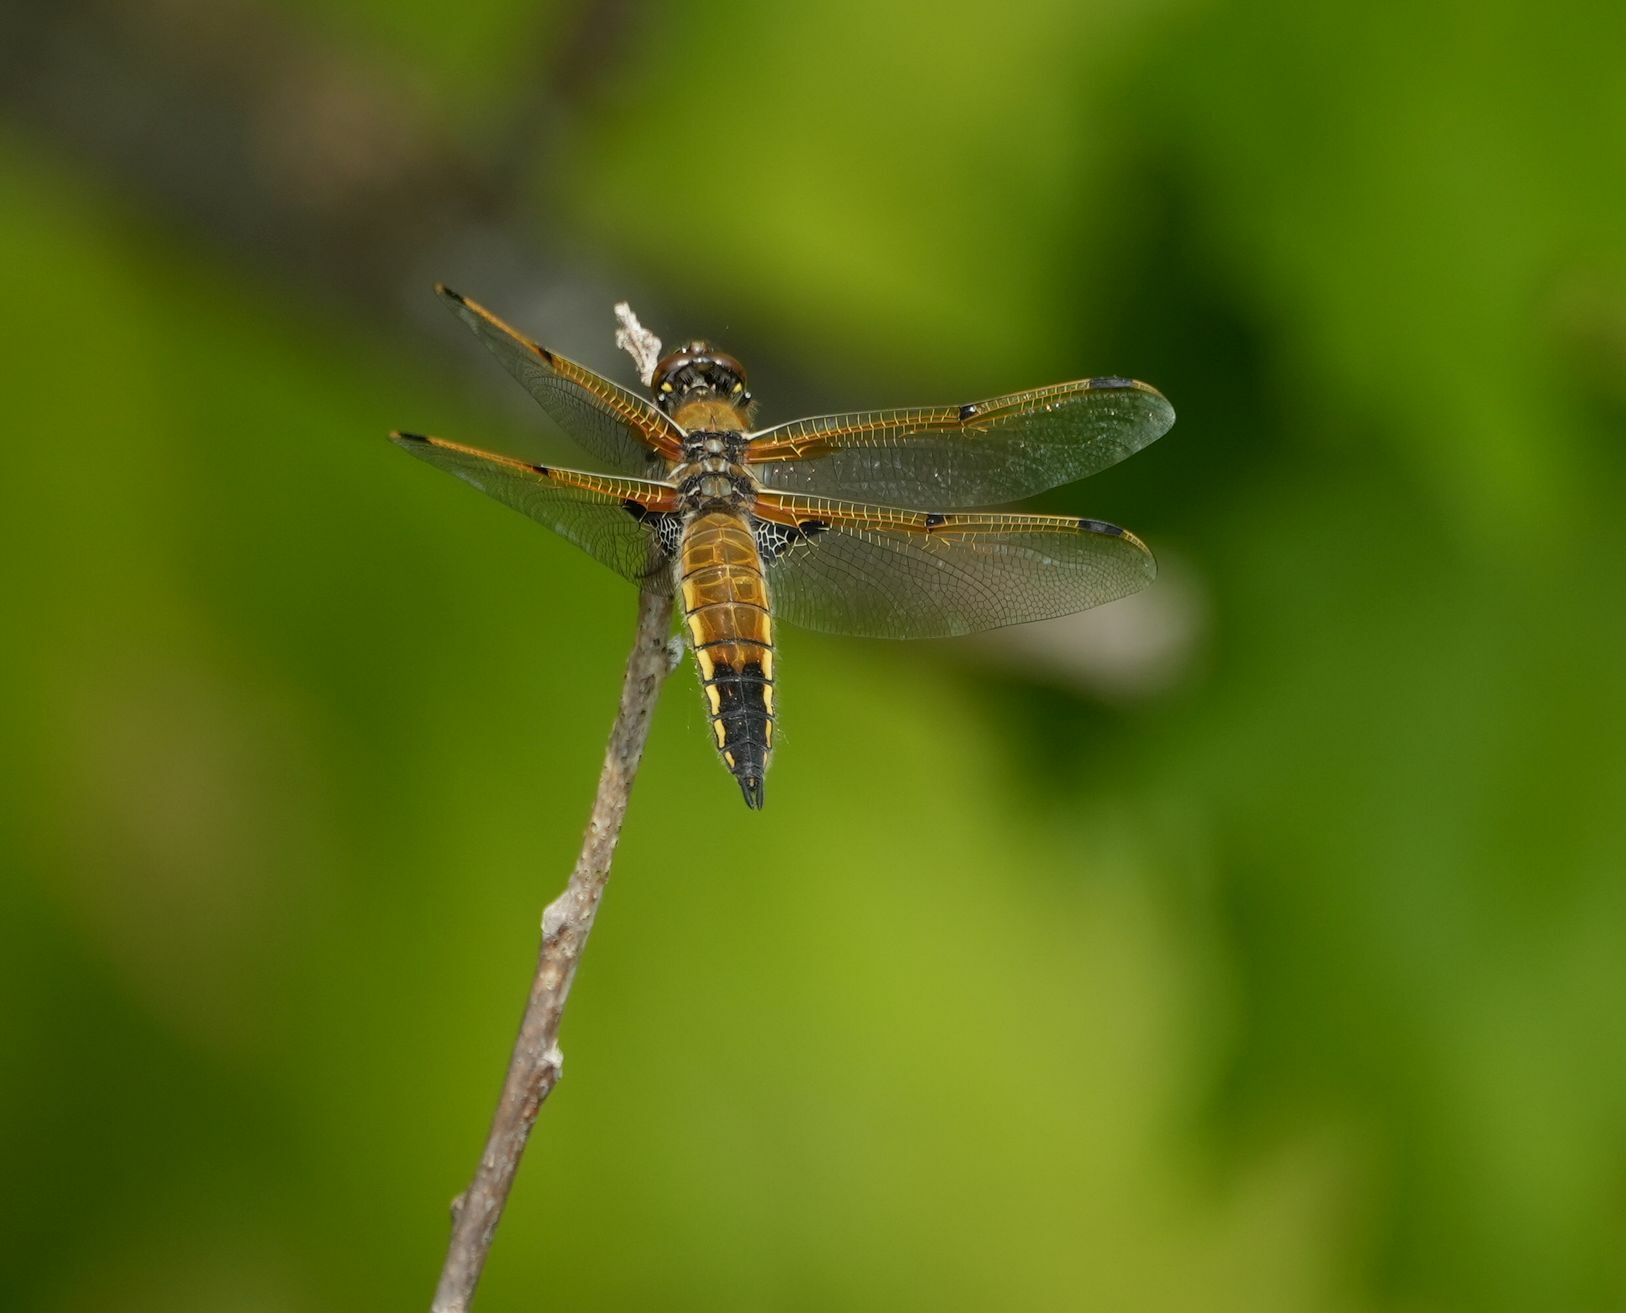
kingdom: Animalia
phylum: Arthropoda
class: Insecta
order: Odonata
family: Libellulidae
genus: Libellula
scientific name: Libellula quadrimaculata
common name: Four-spotted chaser
